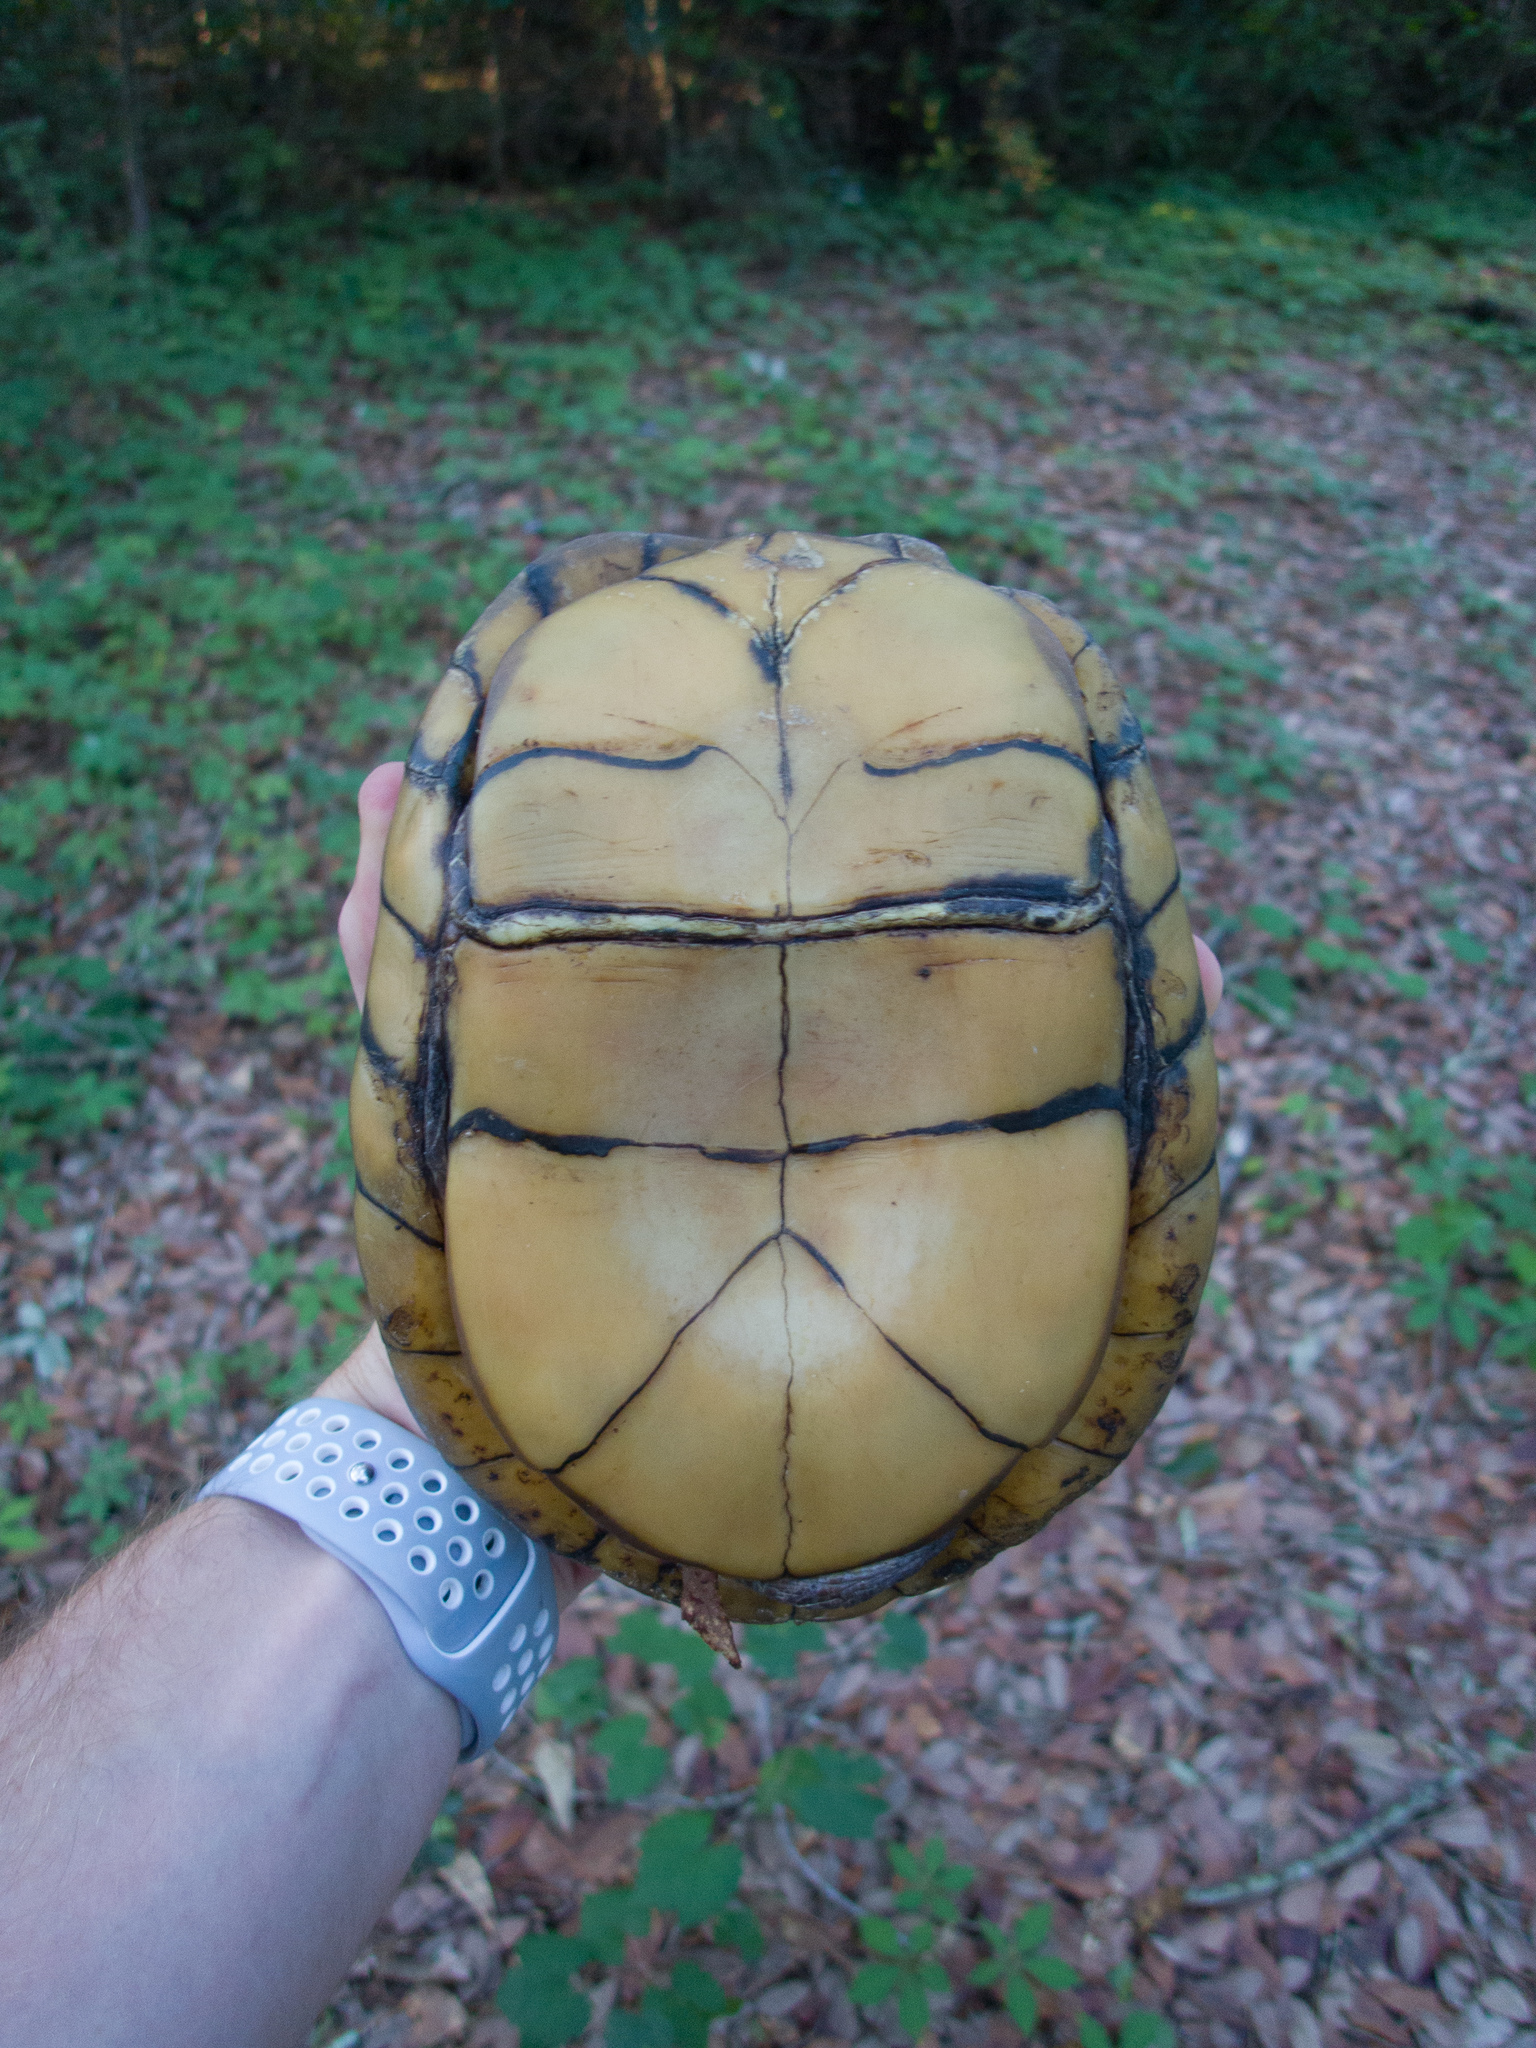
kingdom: Animalia
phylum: Chordata
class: Testudines
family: Emydidae
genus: Terrapene
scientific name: Terrapene carolina
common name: Common box turtle
